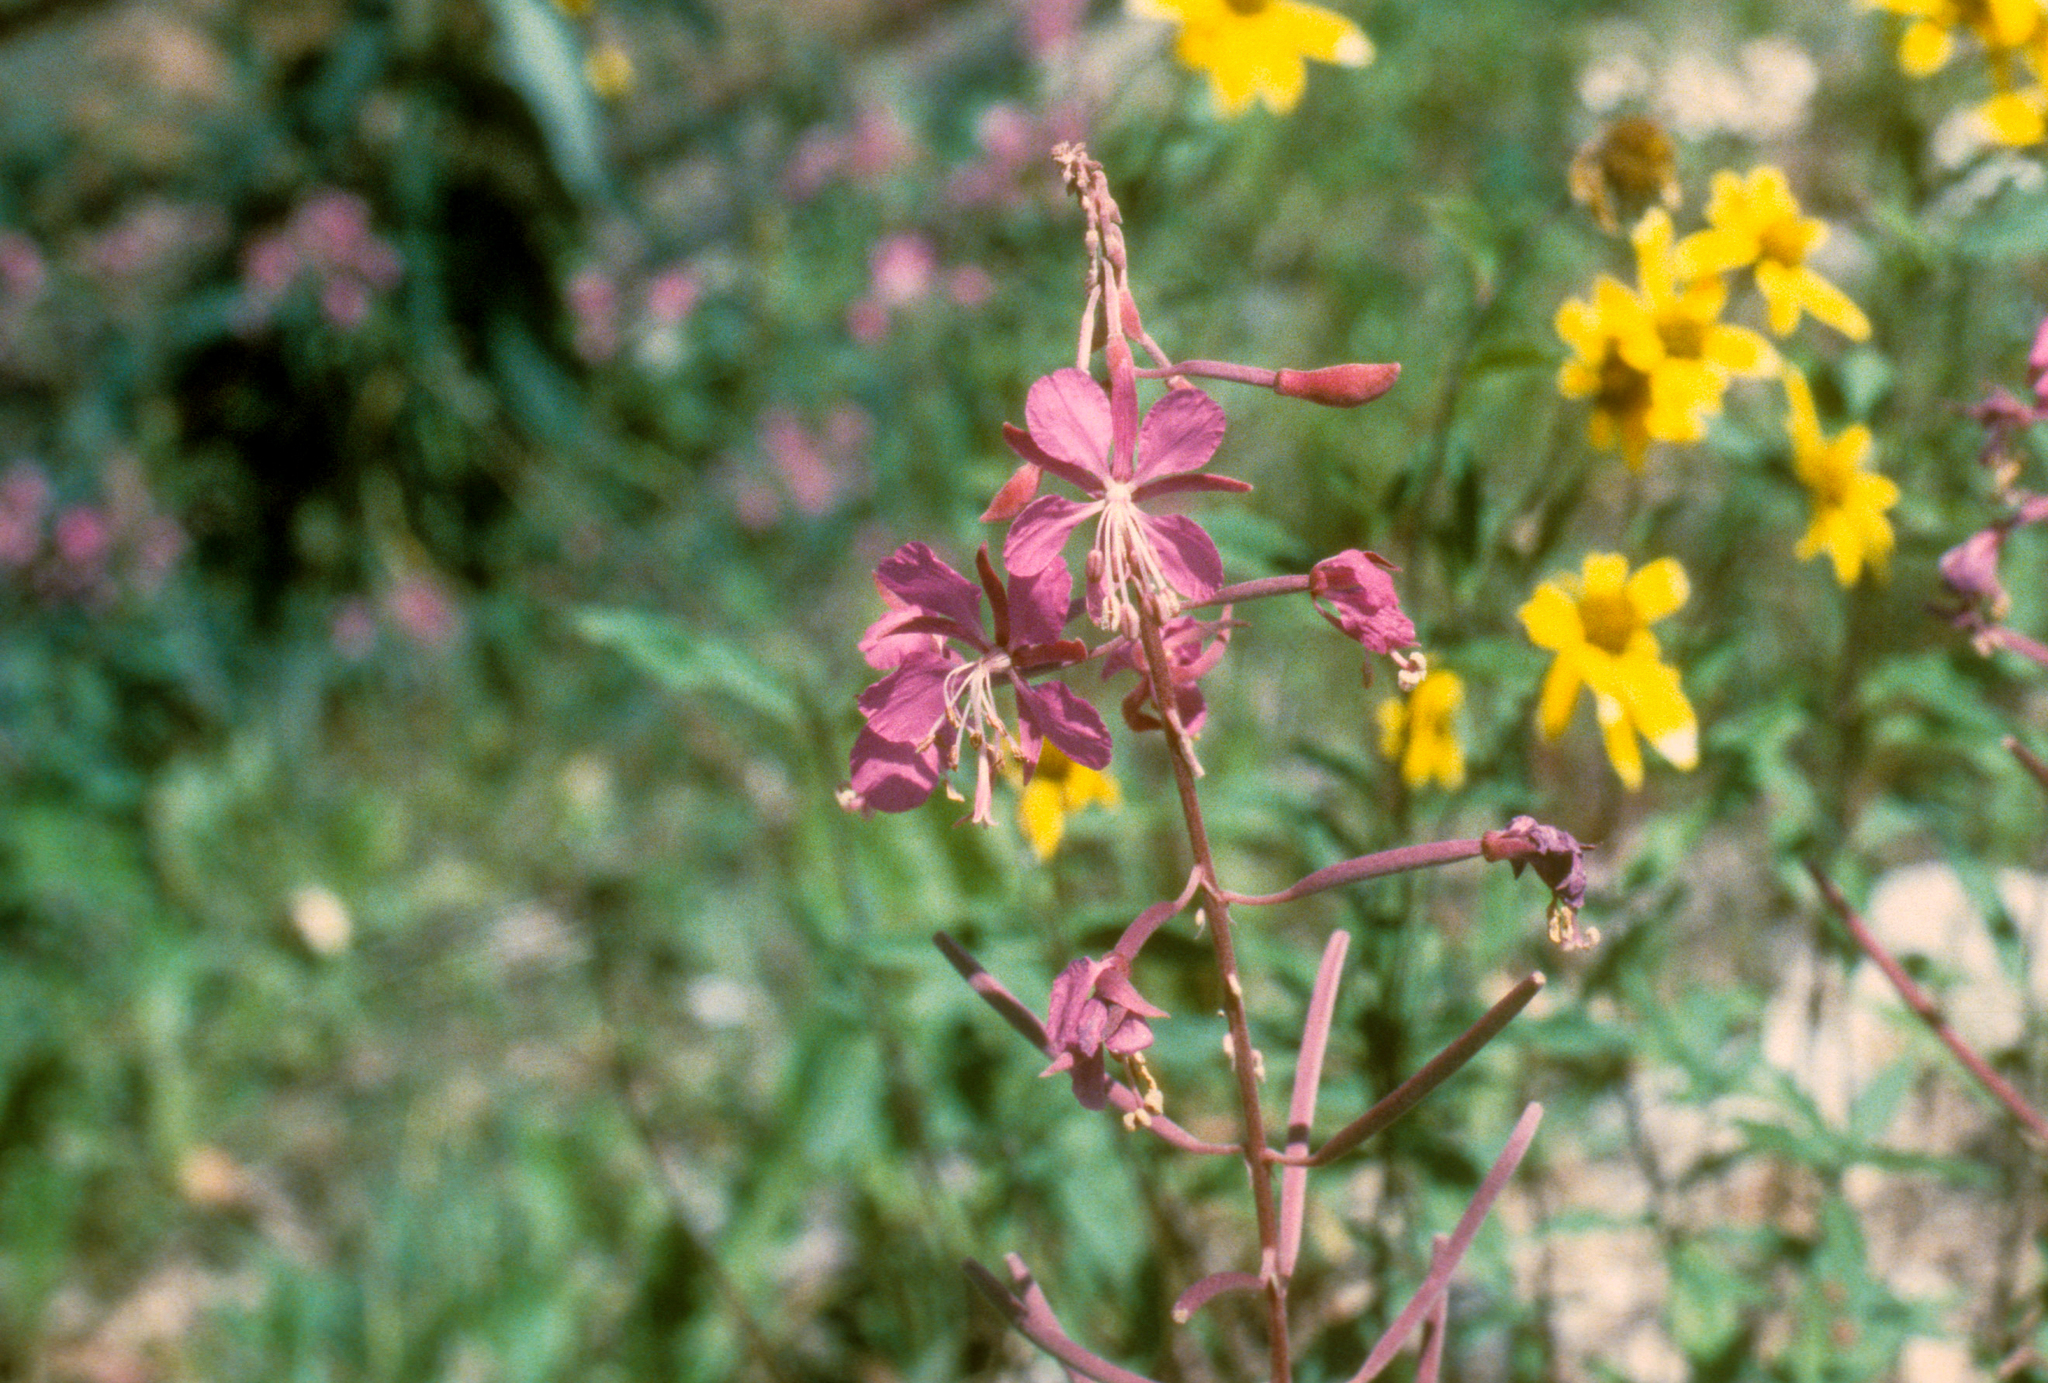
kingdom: Plantae
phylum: Tracheophyta
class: Magnoliopsida
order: Myrtales
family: Onagraceae
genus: Chamaenerion
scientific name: Chamaenerion angustifolium
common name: Fireweed
